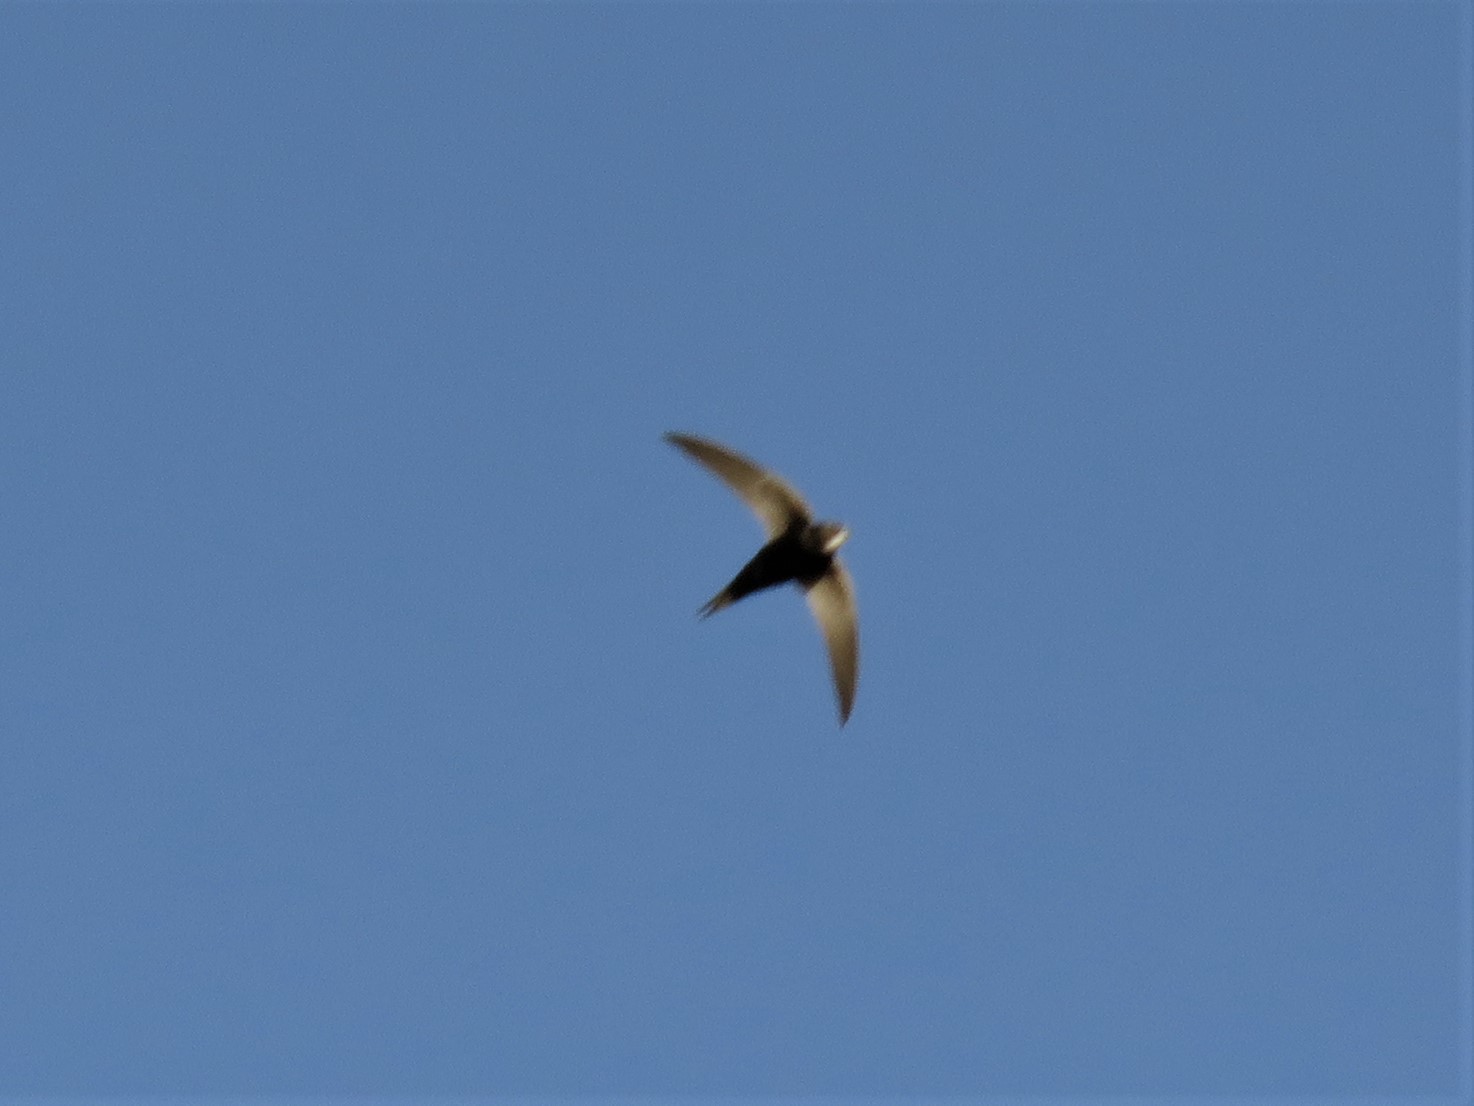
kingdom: Animalia
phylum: Chordata
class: Aves
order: Apodiformes
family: Apodidae
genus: Apus
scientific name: Apus caffer
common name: White-rumped swift
